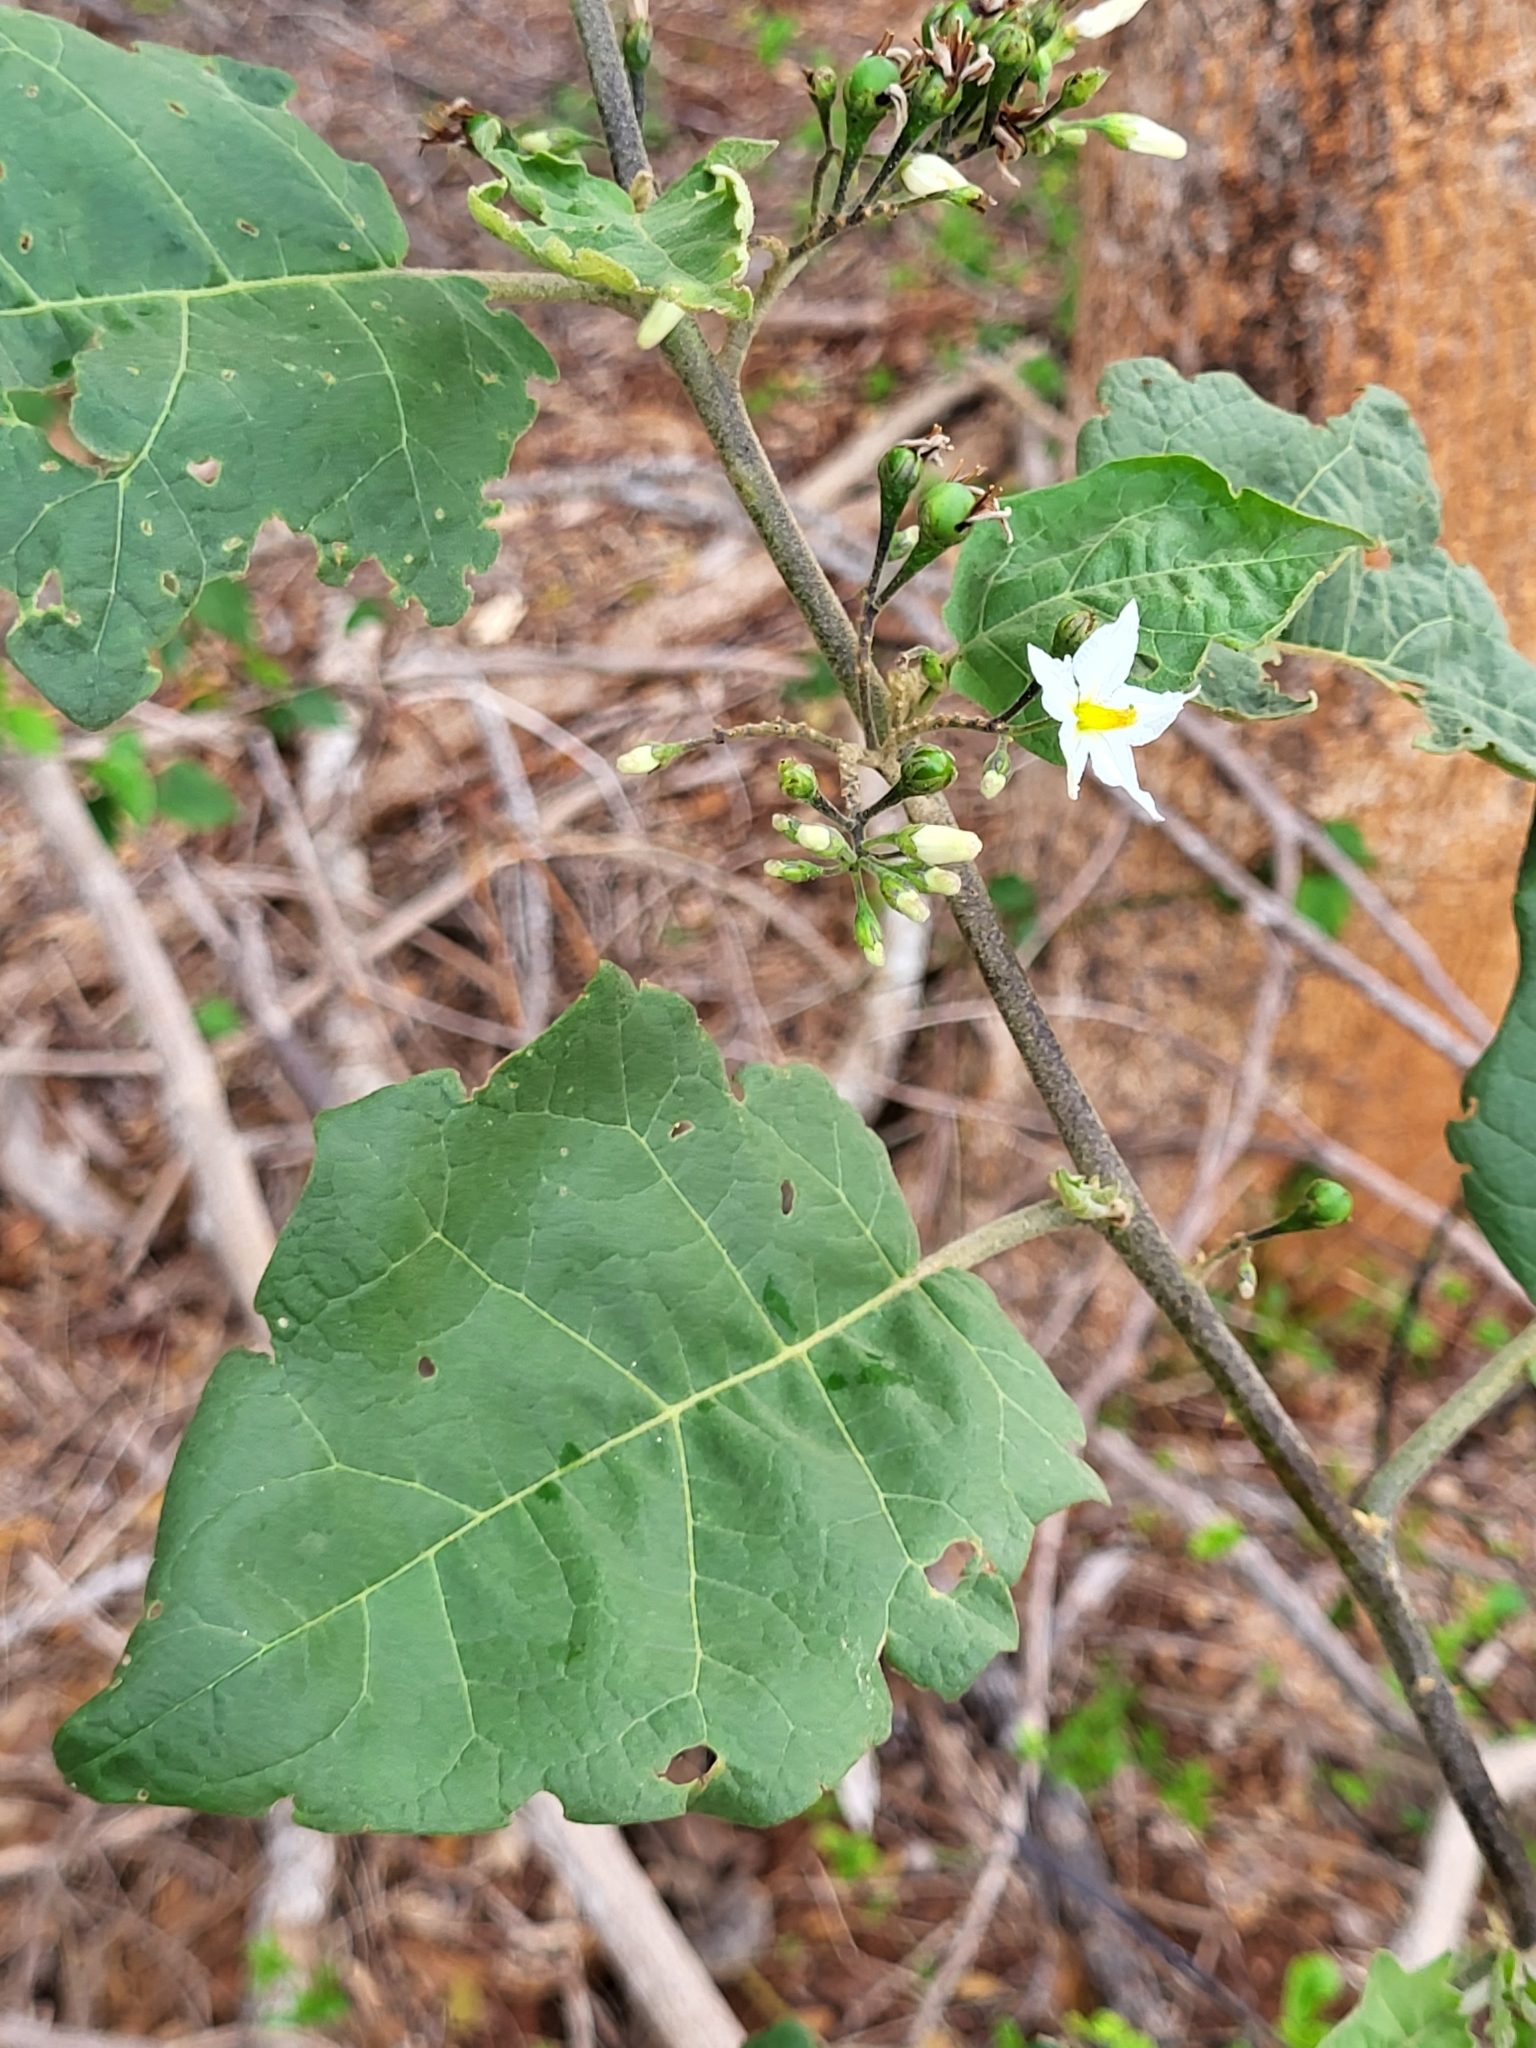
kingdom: Plantae
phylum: Tracheophyta
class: Magnoliopsida
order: Solanales
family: Solanaceae
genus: Solanum
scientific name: Solanum torvum
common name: Turkey berry
